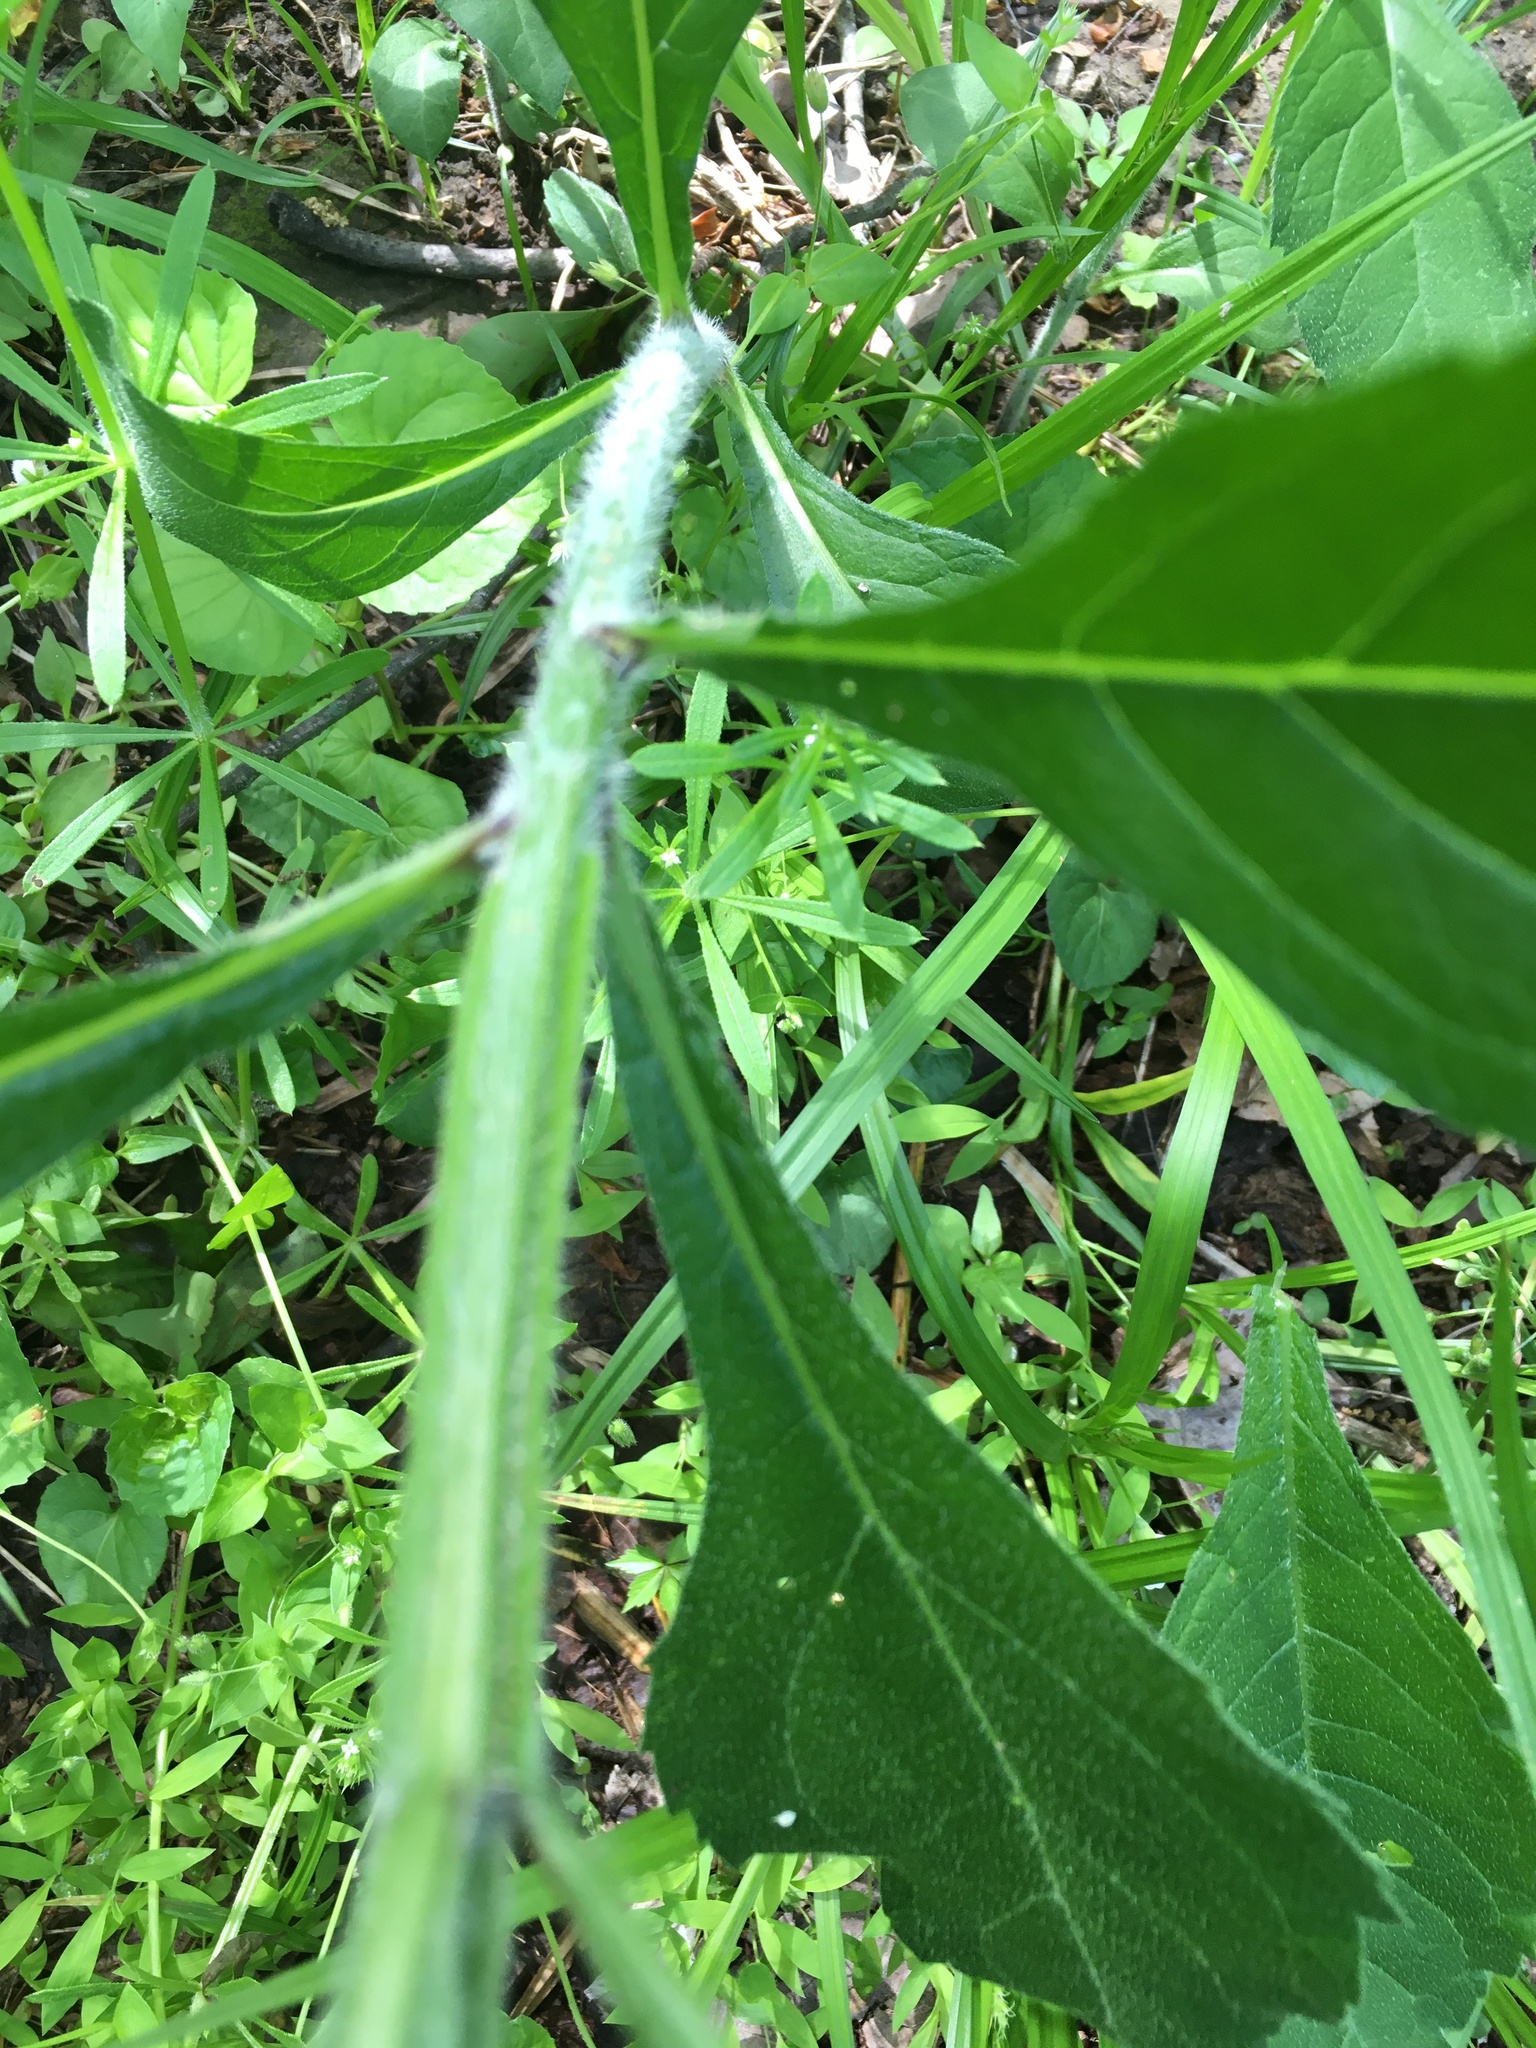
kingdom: Plantae
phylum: Tracheophyta
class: Magnoliopsida
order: Asterales
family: Asteraceae
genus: Verbesina
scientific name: Verbesina alternifolia
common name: Wingstem
